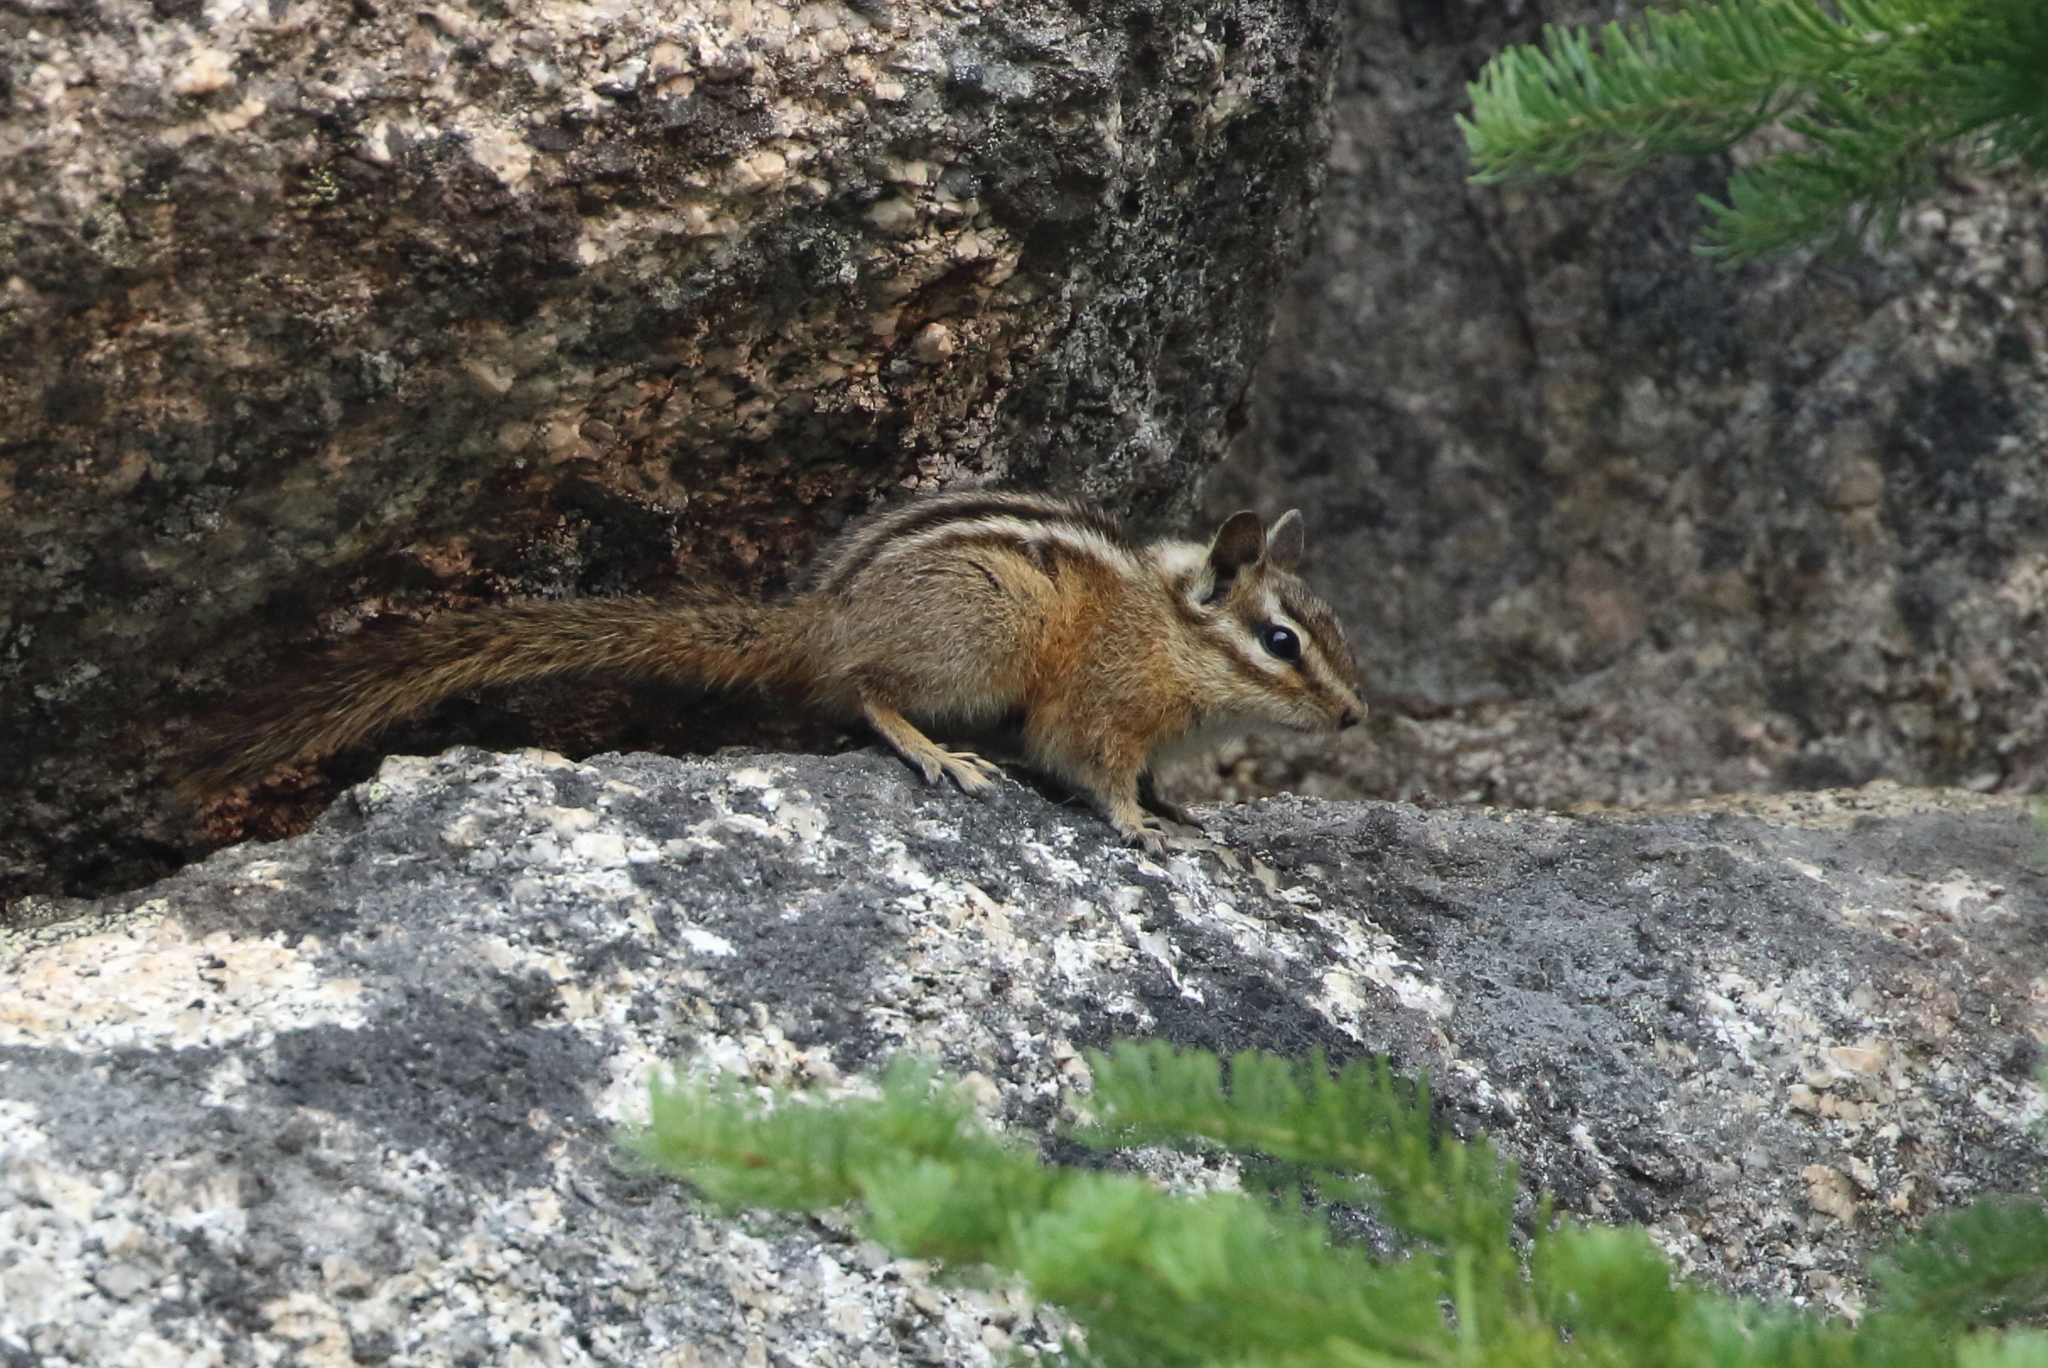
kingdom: Animalia
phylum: Chordata
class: Mammalia
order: Rodentia
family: Sciuridae
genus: Tamias
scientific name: Tamias amoenus
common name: Yellow-pine chipmunk
